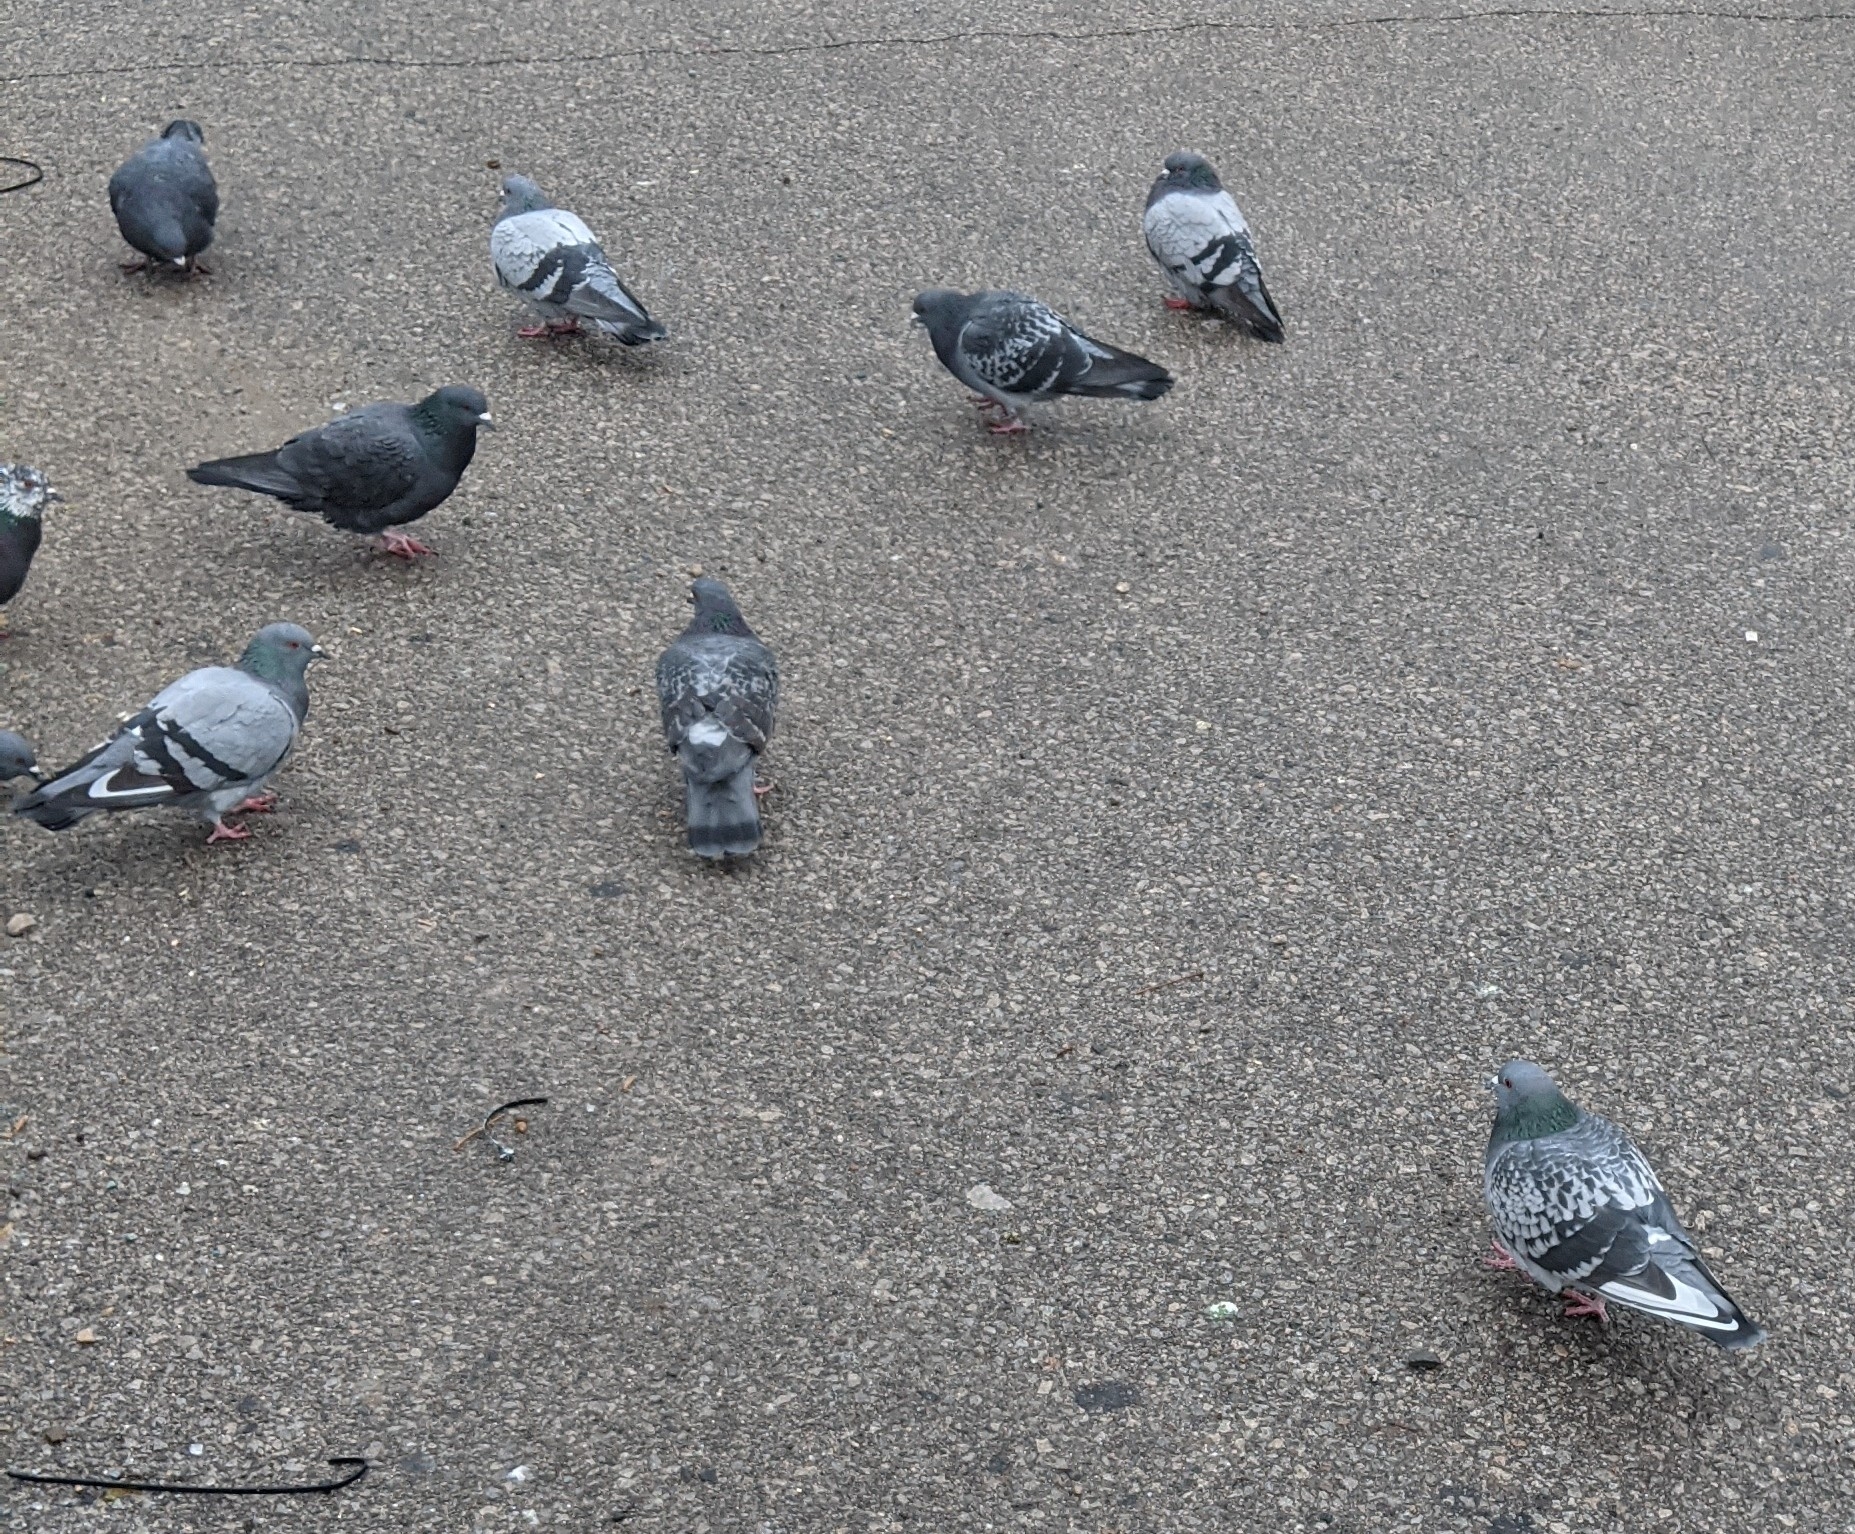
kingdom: Animalia
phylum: Chordata
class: Aves
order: Columbiformes
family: Columbidae
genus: Columba
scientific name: Columba livia
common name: Rock pigeon
